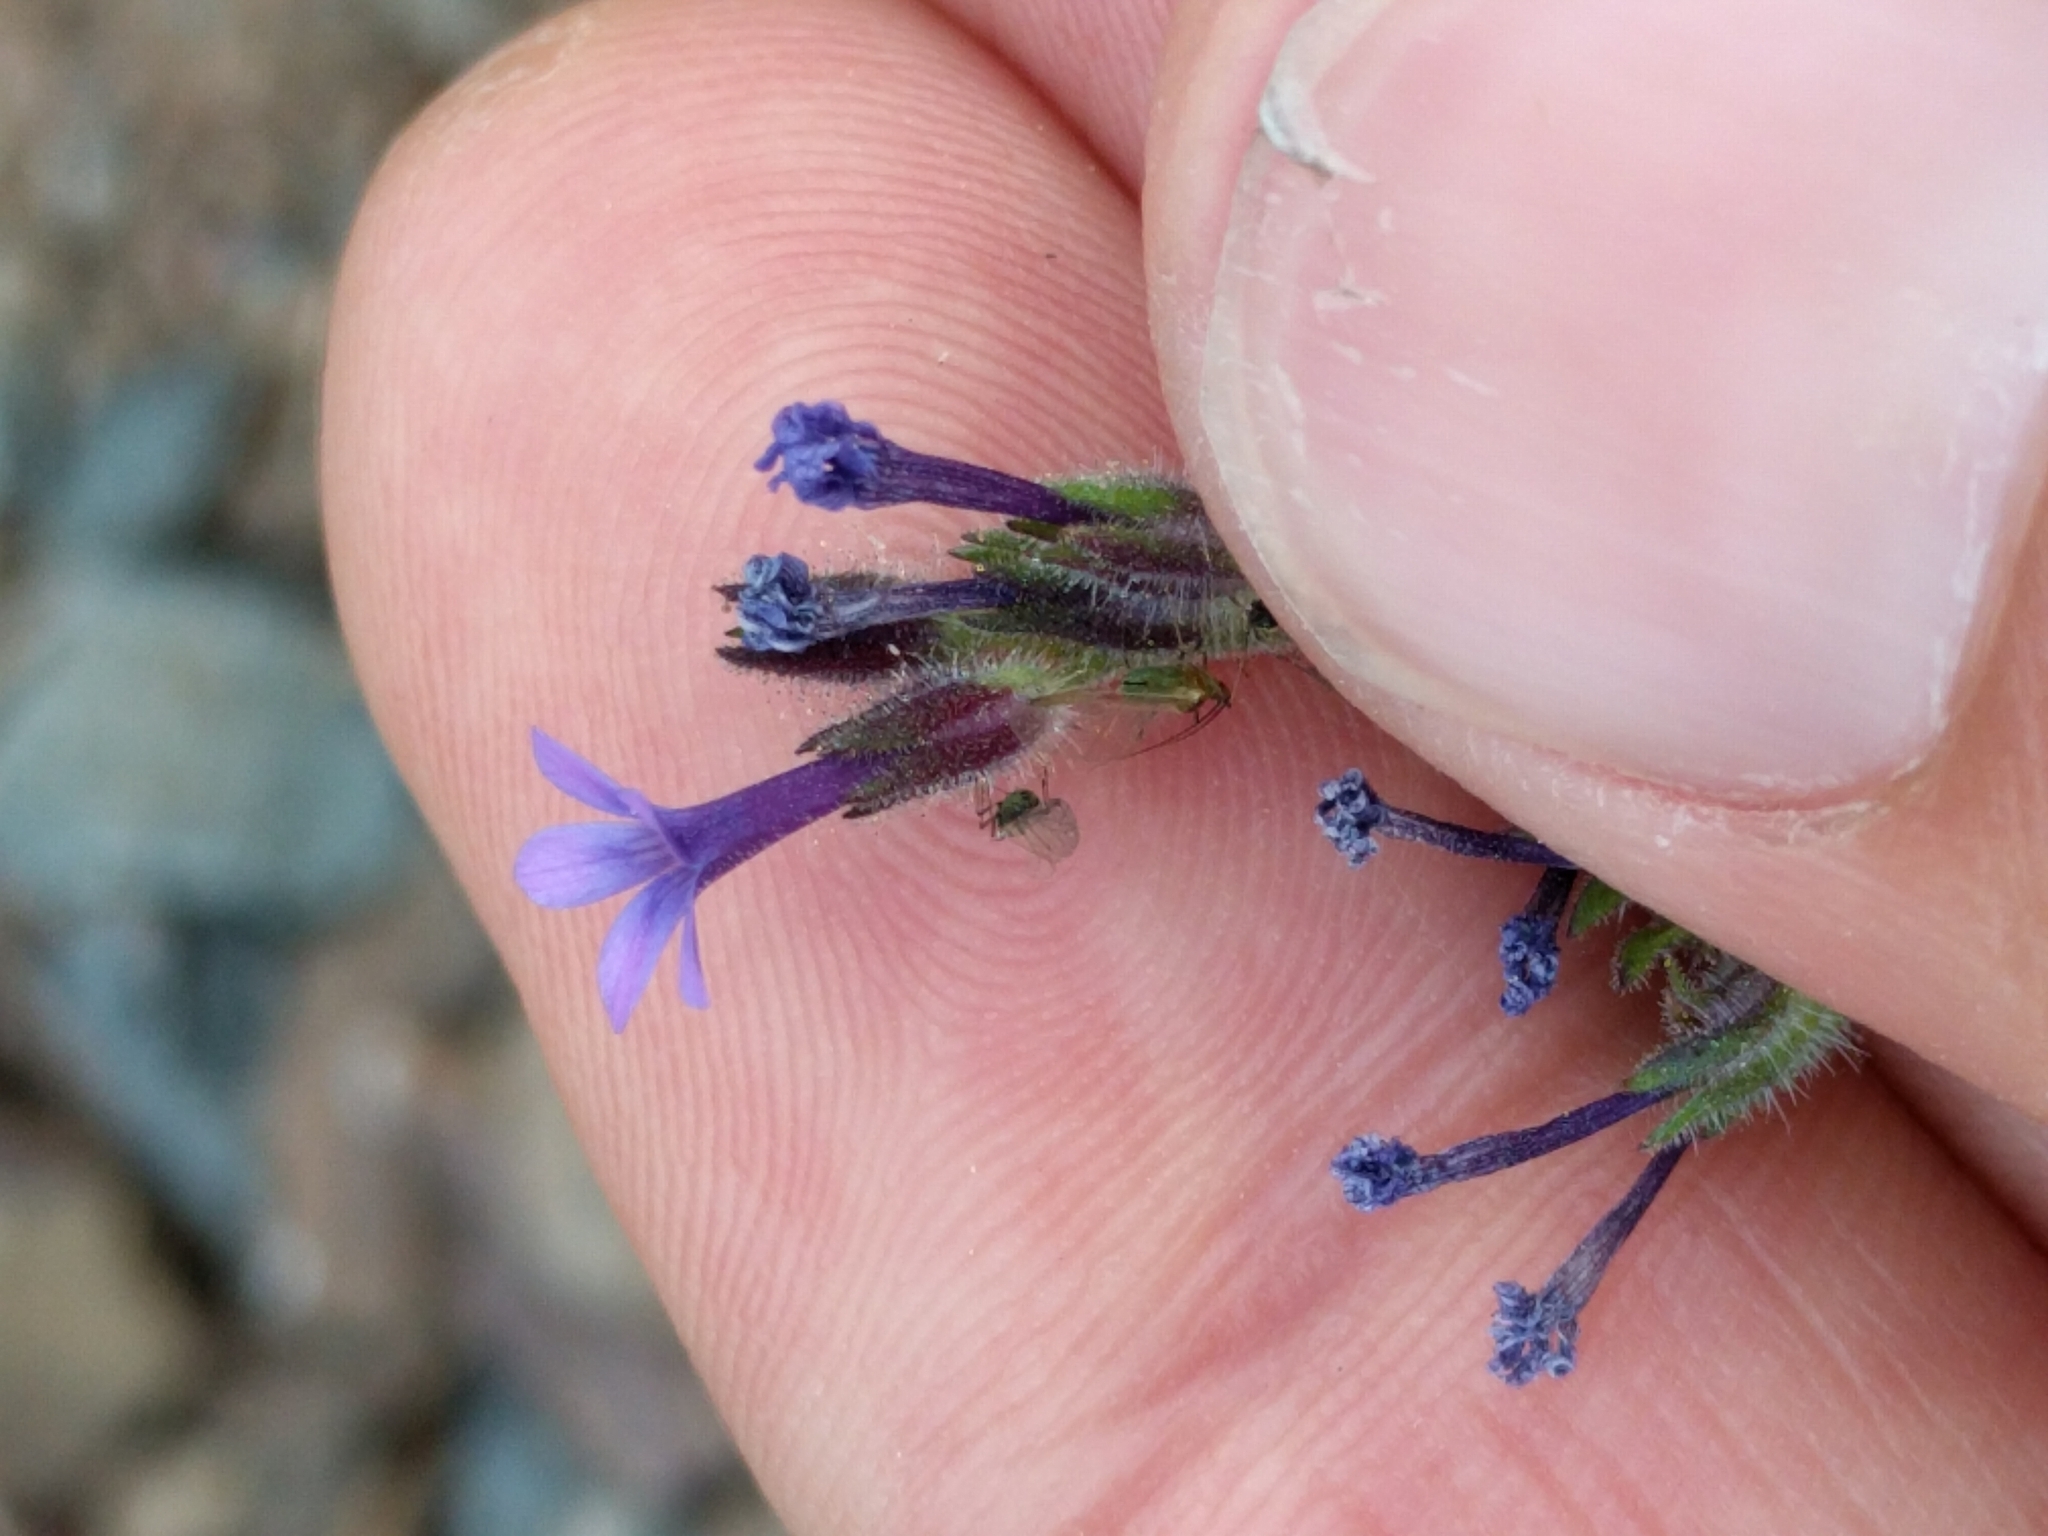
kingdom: Plantae
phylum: Tracheophyta
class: Magnoliopsida
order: Ericales
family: Polemoniaceae
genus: Allophyllum
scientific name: Allophyllum gilioides
